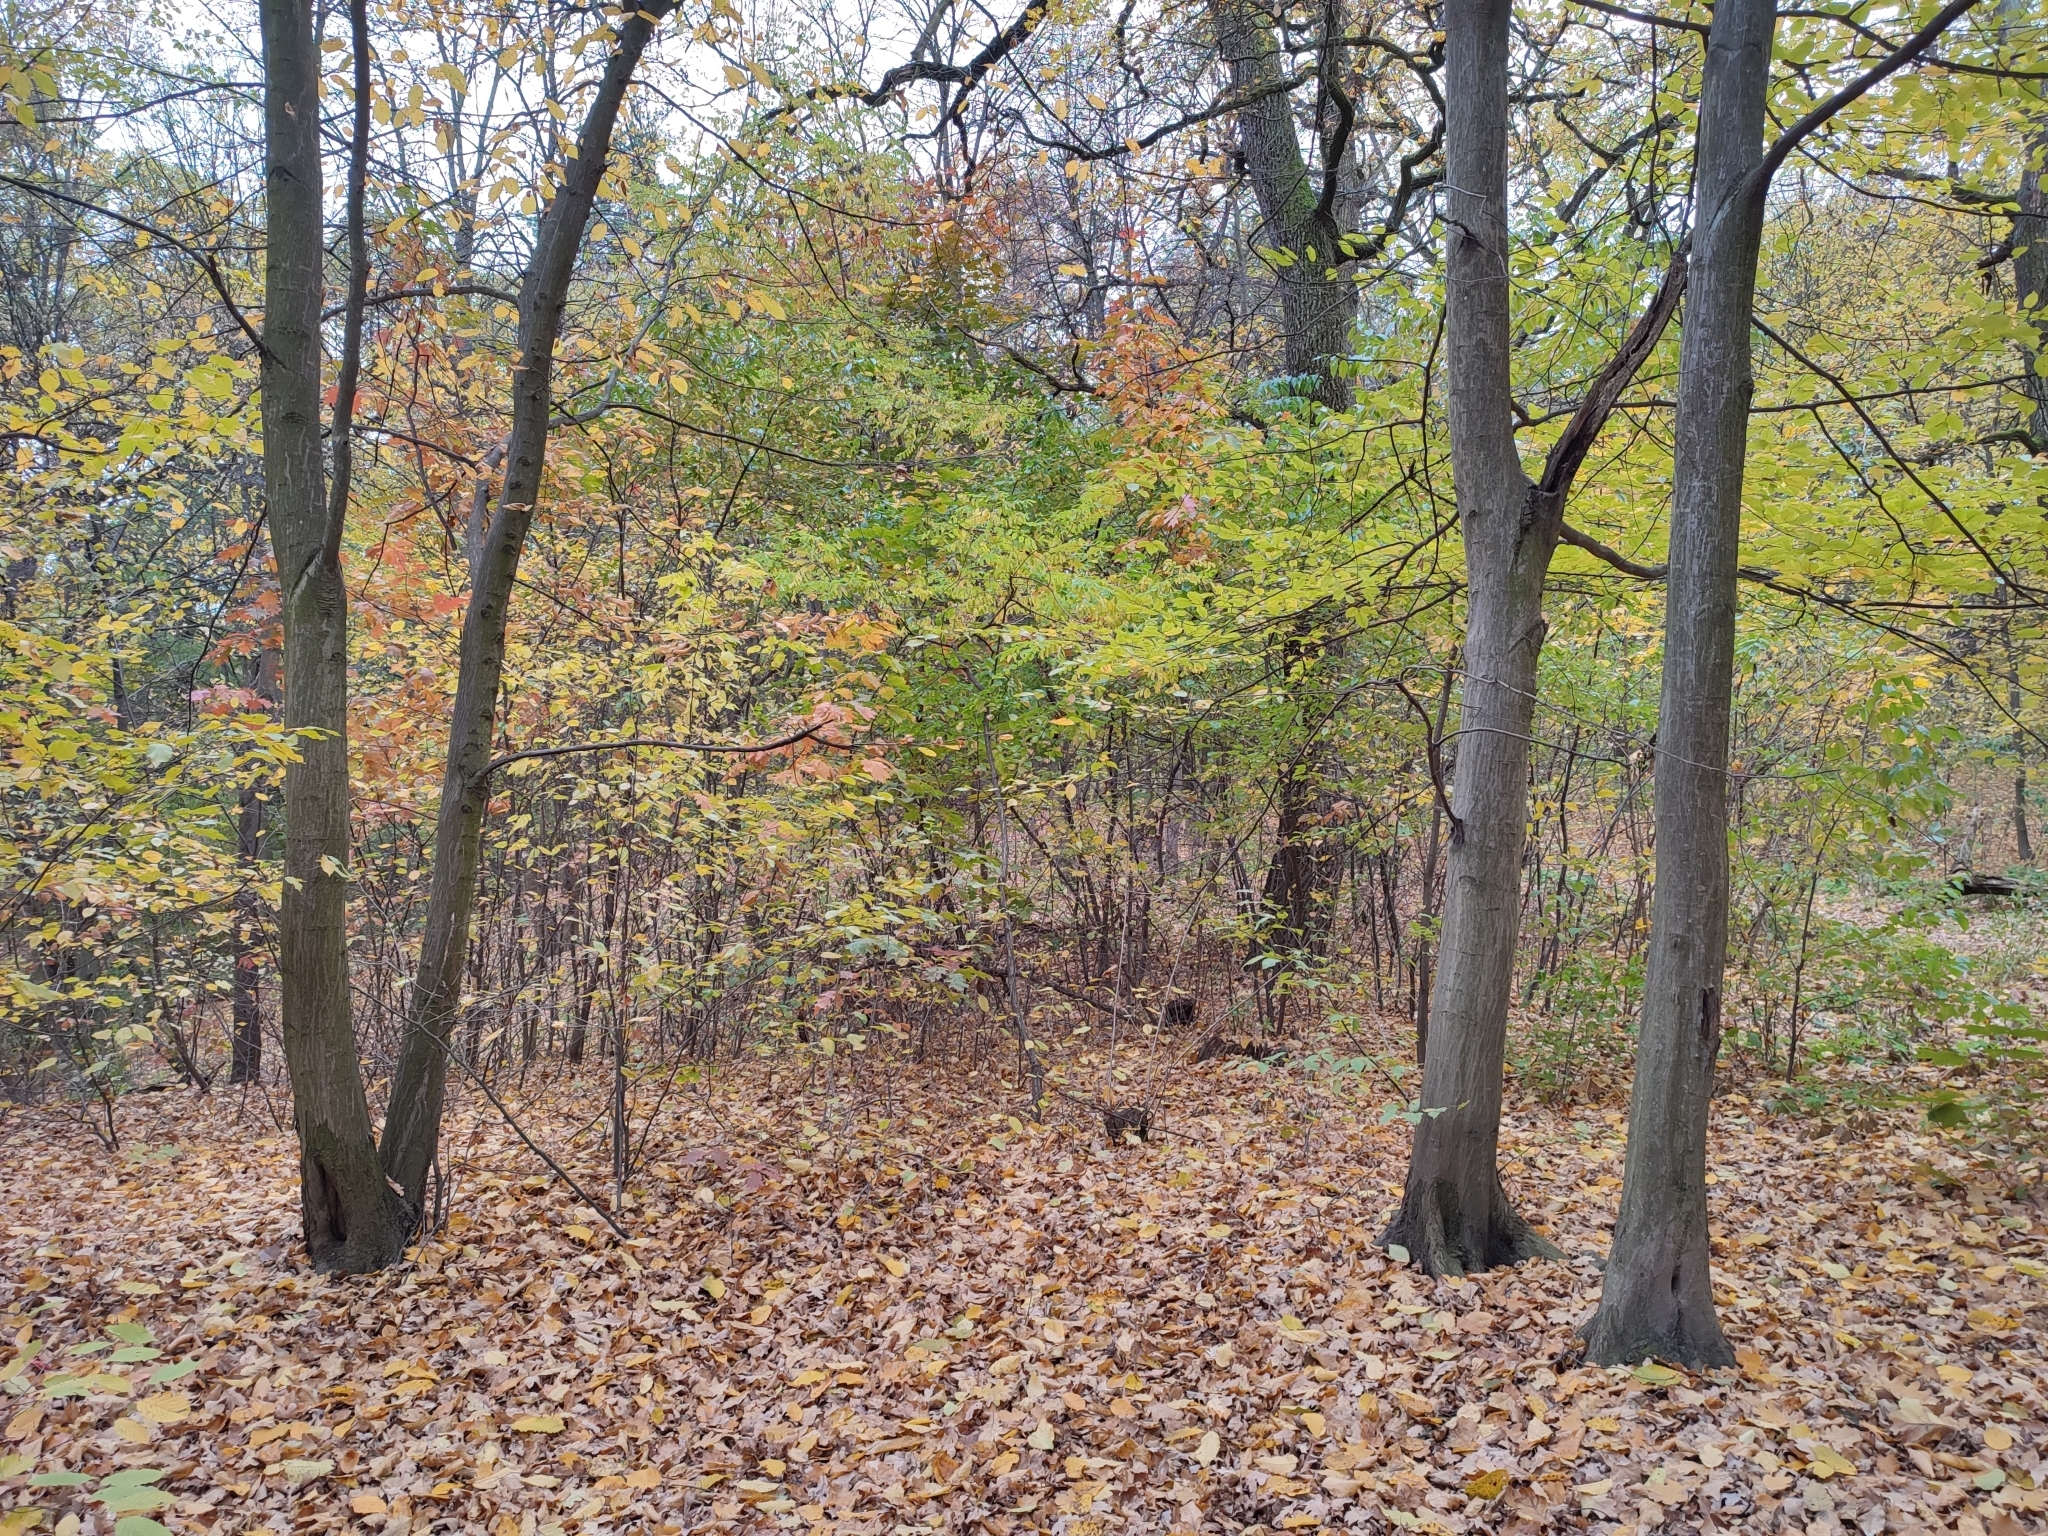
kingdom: Plantae
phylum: Tracheophyta
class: Magnoliopsida
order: Fagales
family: Betulaceae
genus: Carpinus
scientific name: Carpinus betulus
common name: Hornbeam
